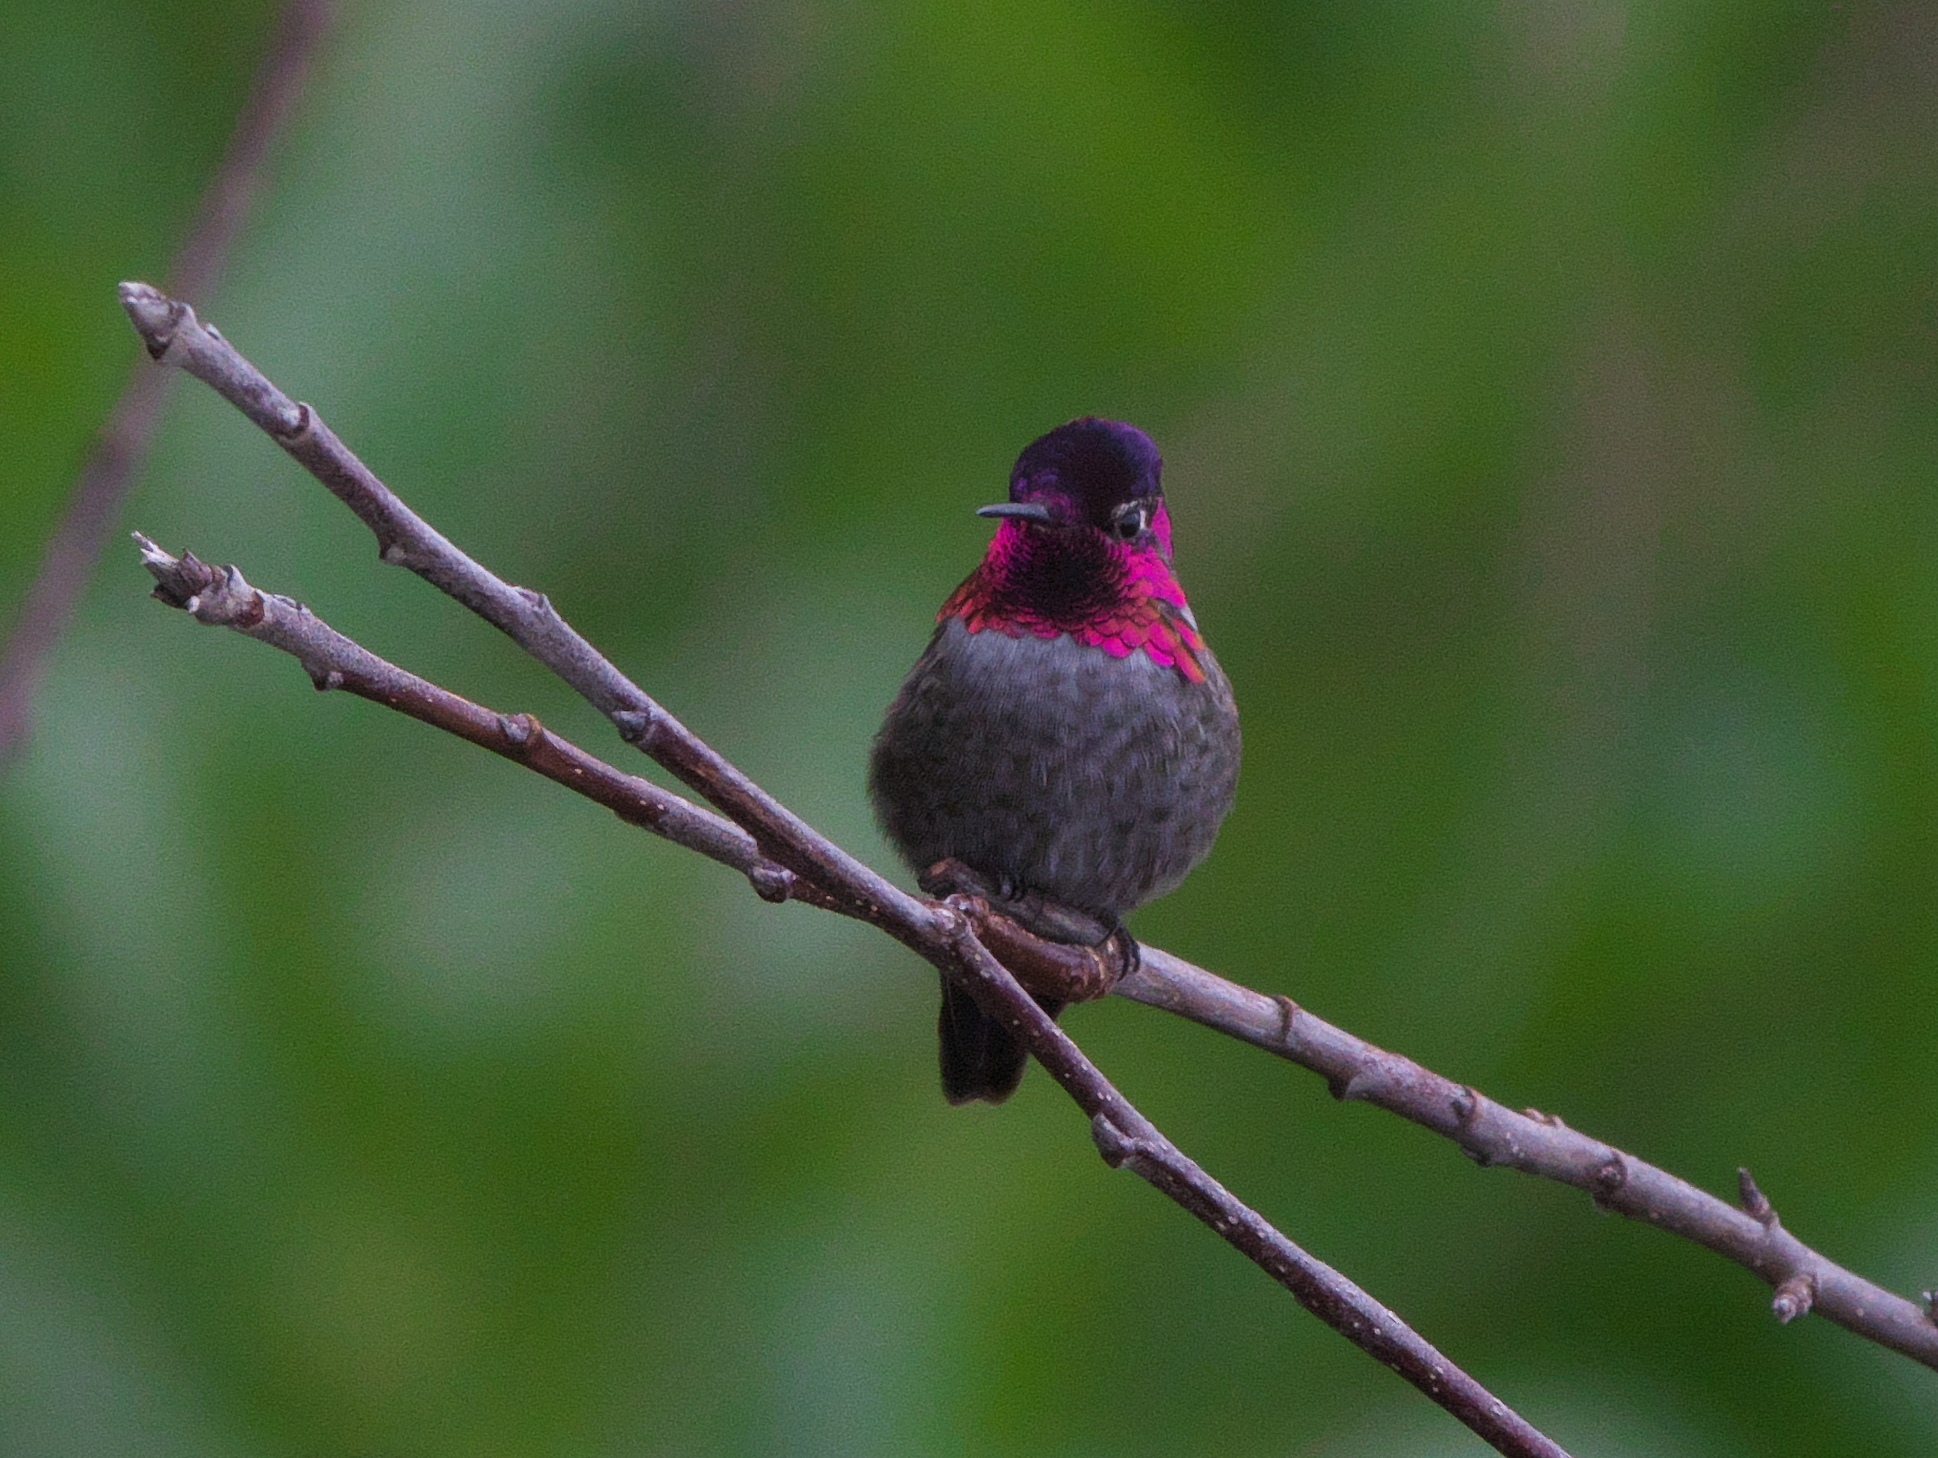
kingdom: Animalia
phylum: Chordata
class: Aves
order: Apodiformes
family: Trochilidae
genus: Calypte
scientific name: Calypte anna
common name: Anna's hummingbird
